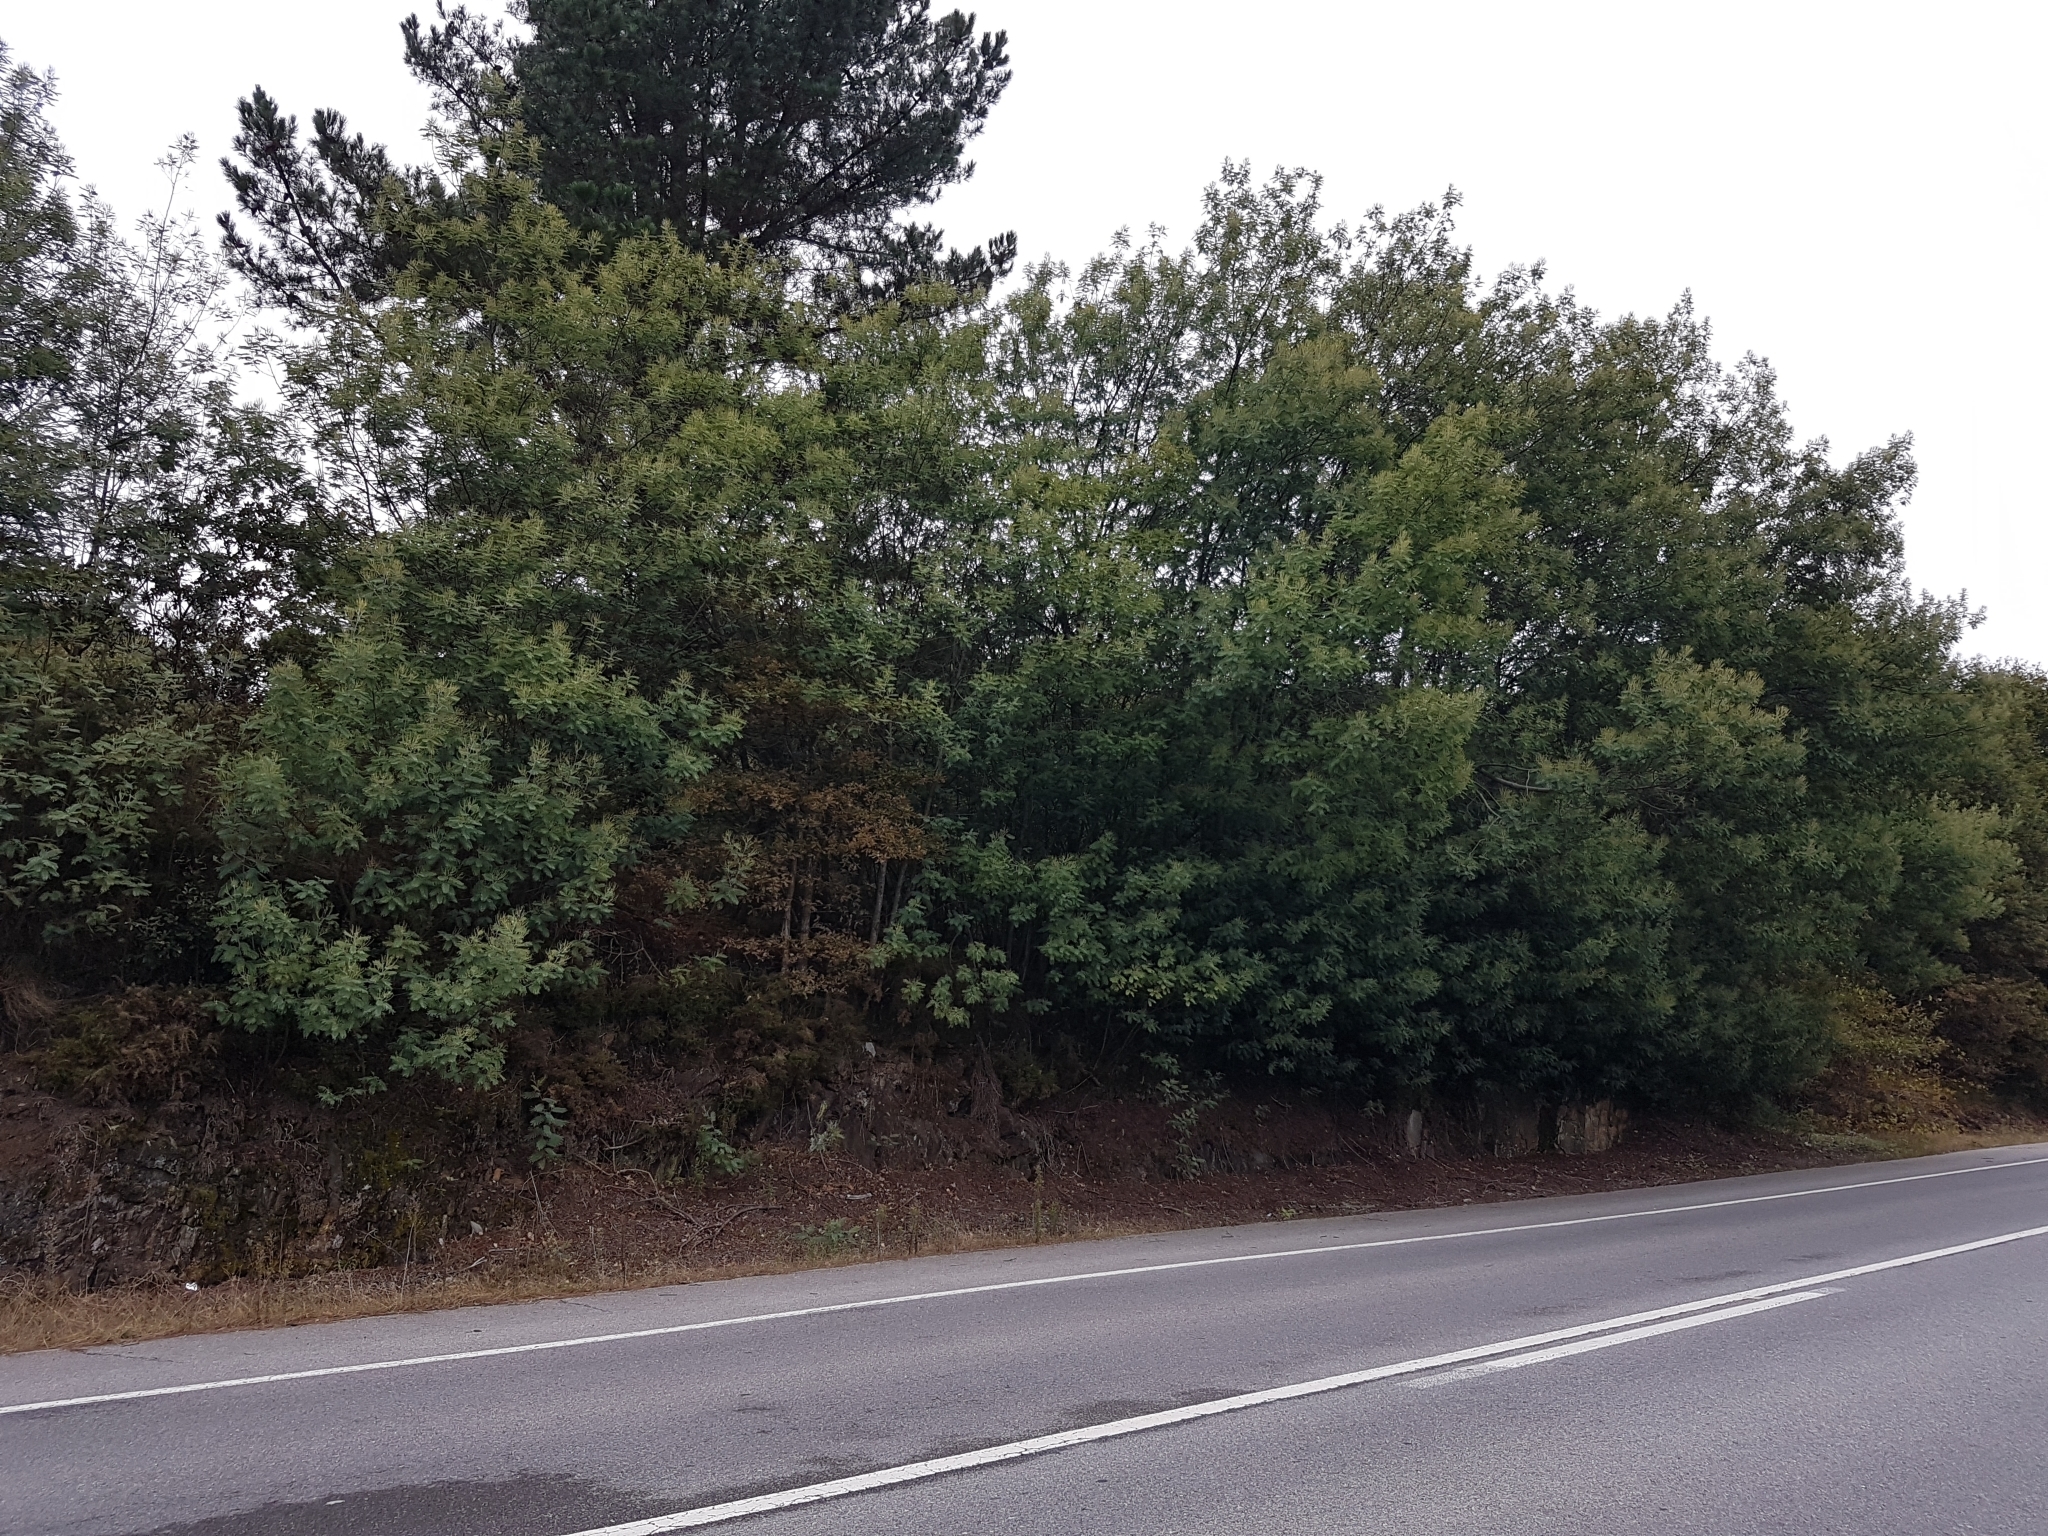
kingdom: Plantae
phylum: Tracheophyta
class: Magnoliopsida
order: Fabales
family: Fabaceae
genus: Acacia
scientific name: Acacia dealbata
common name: Silver wattle
